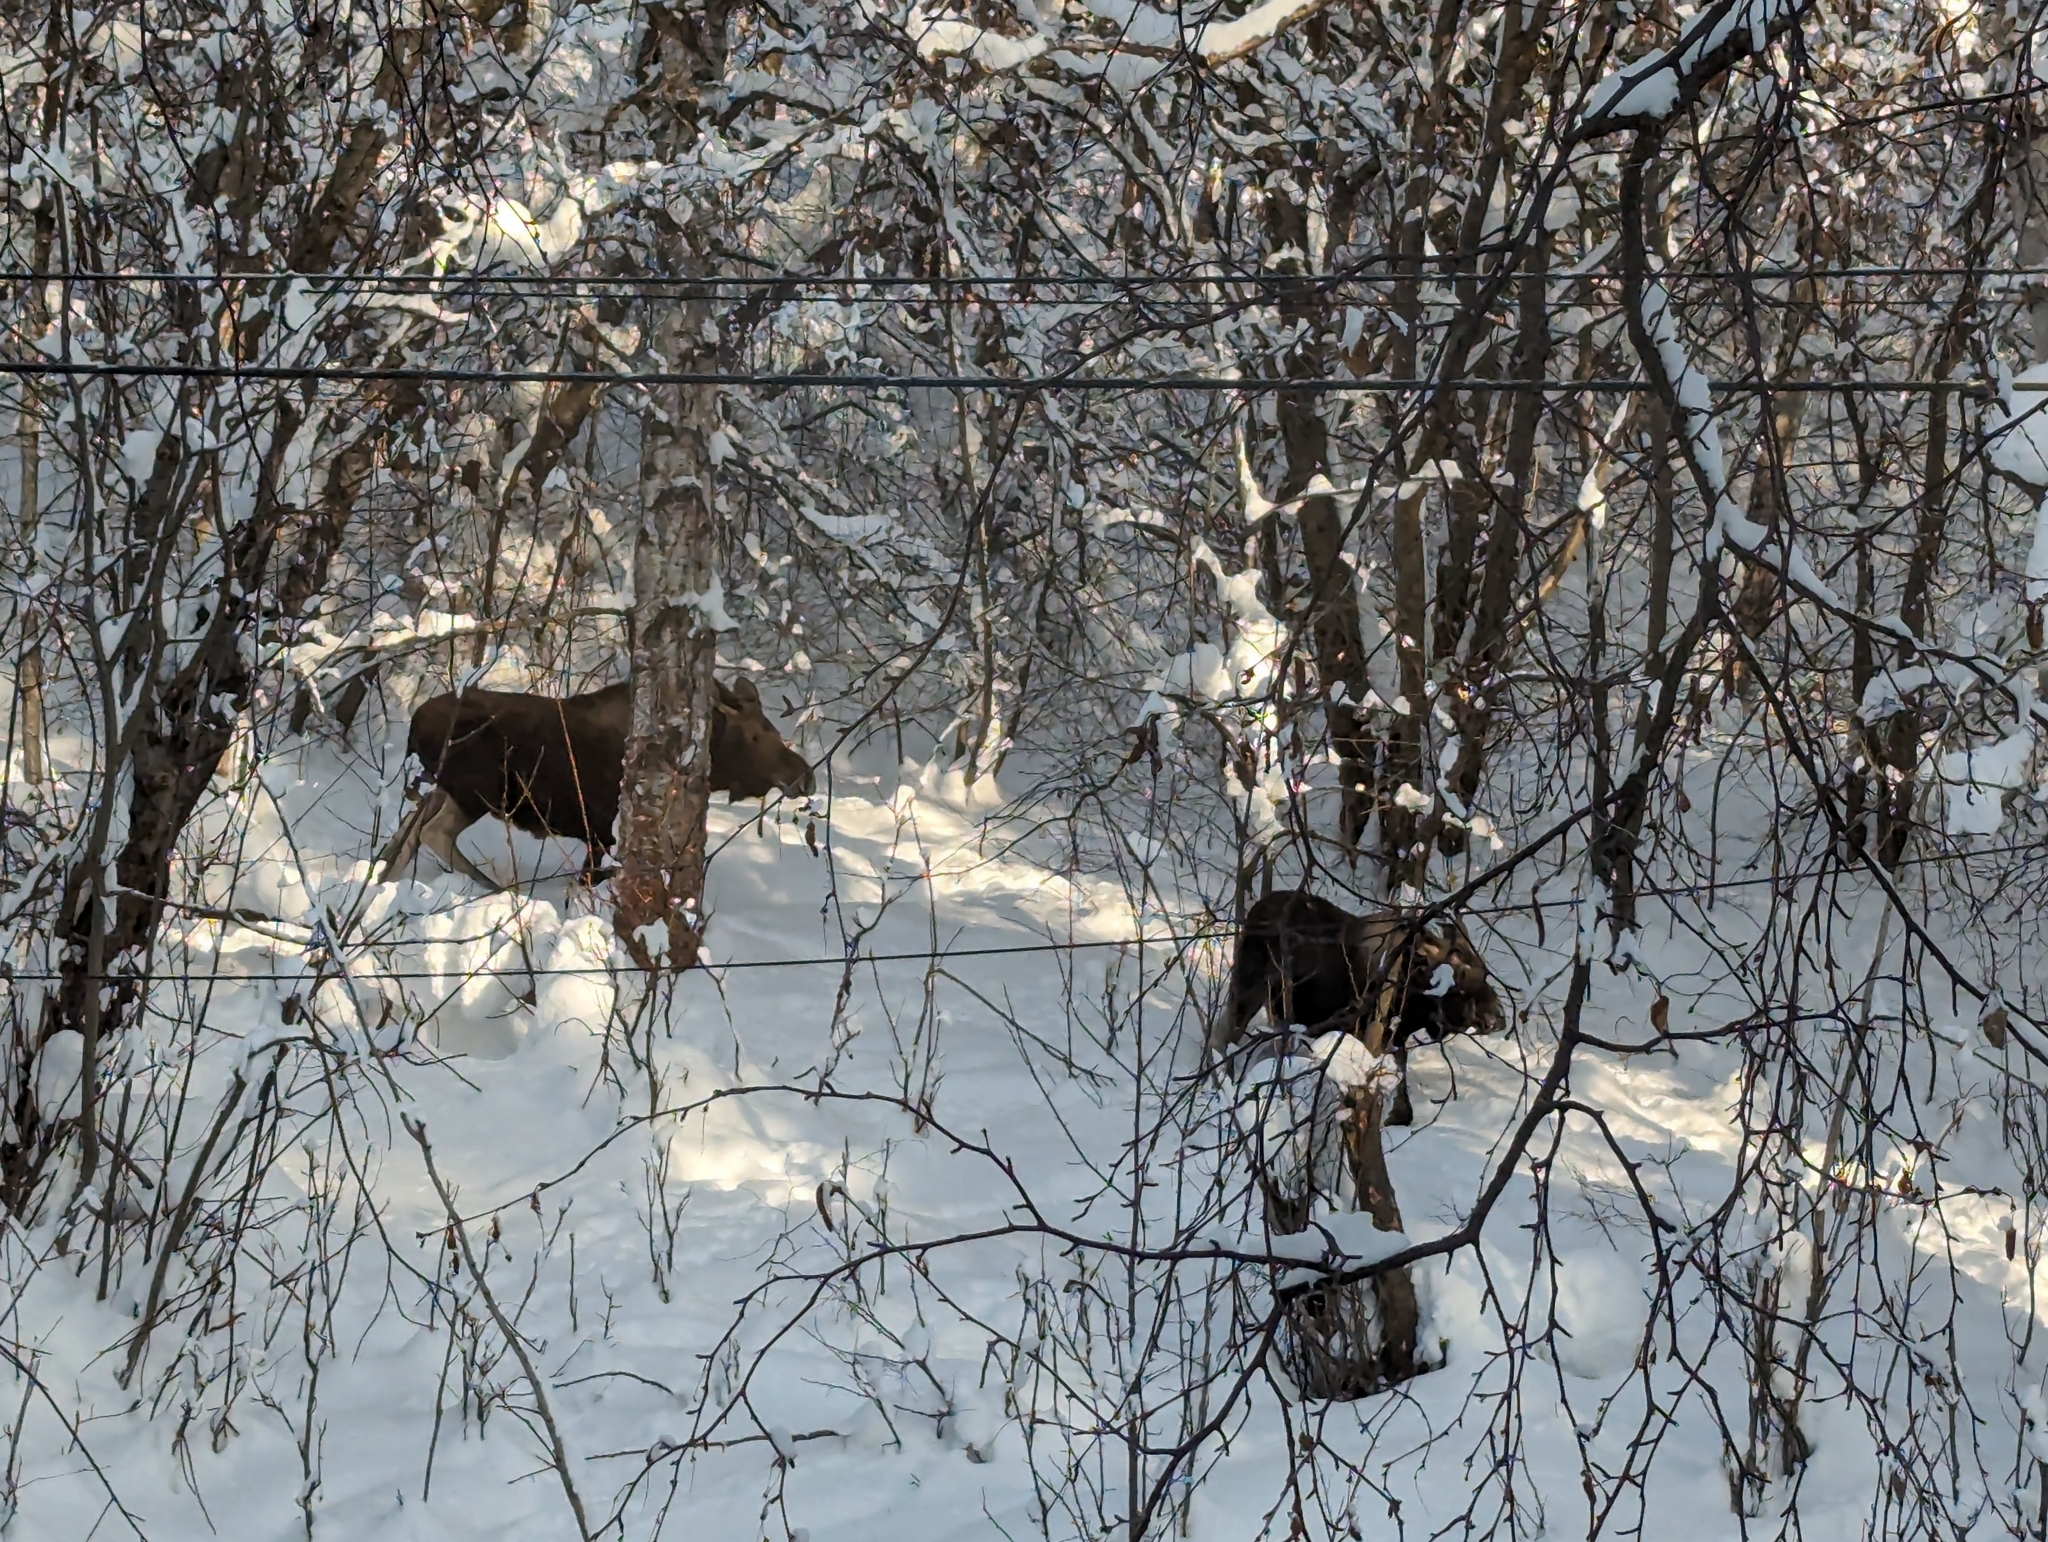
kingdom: Animalia
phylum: Chordata
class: Mammalia
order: Artiodactyla
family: Cervidae
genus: Alces
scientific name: Alces alces
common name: Moose
